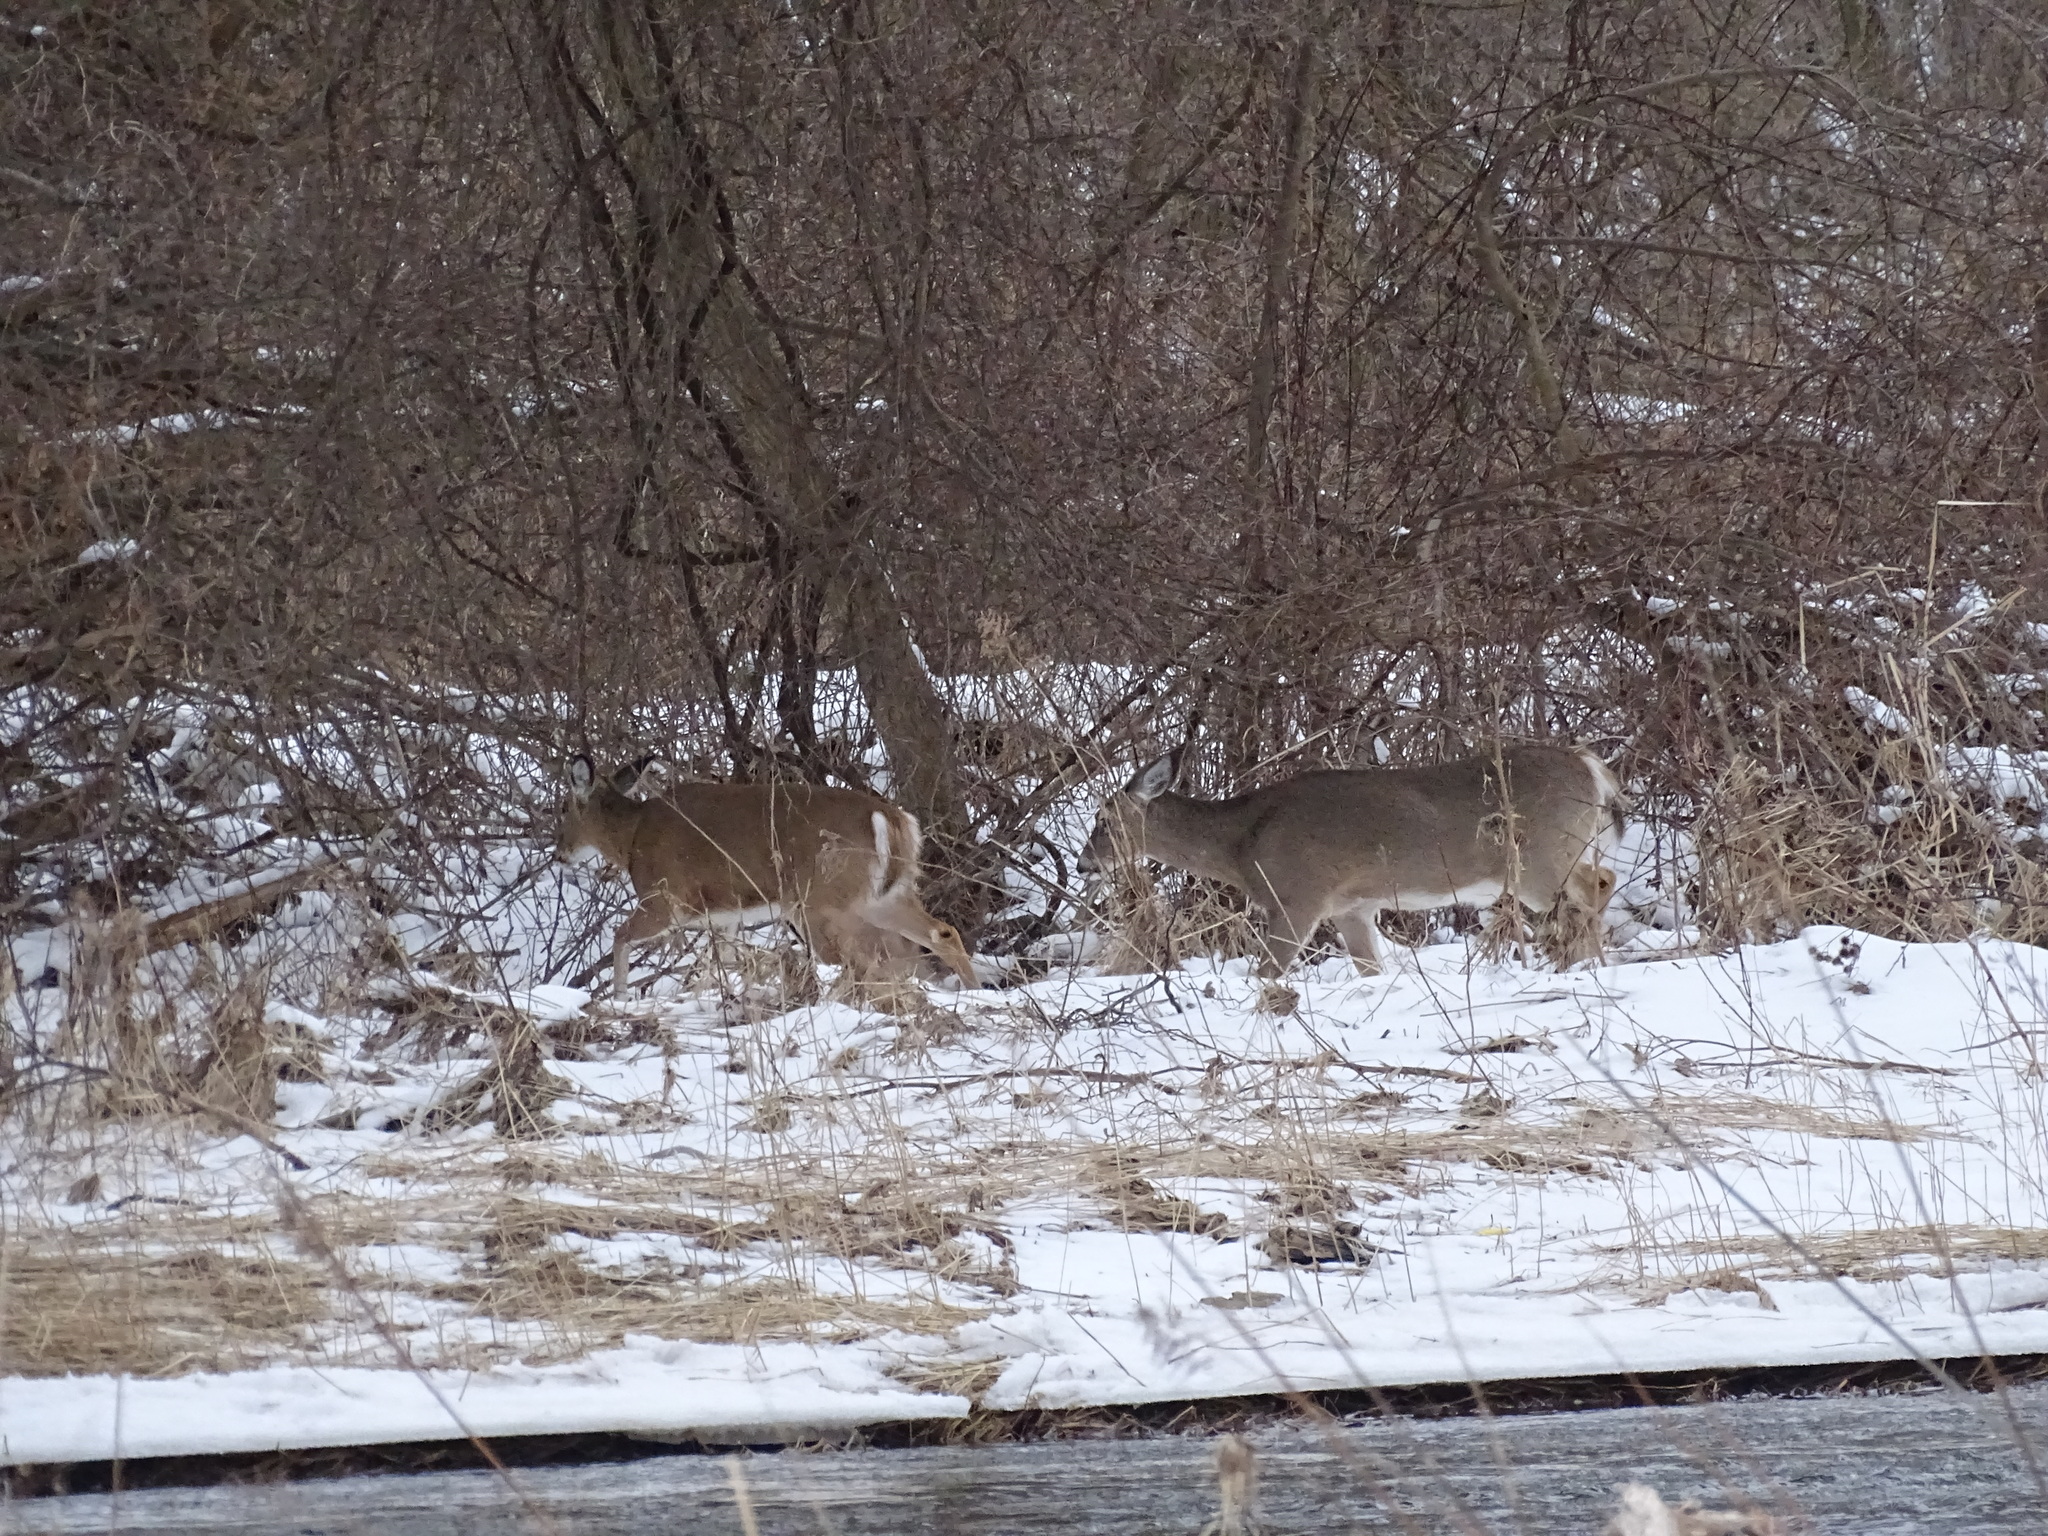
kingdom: Animalia
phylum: Chordata
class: Mammalia
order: Artiodactyla
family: Cervidae
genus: Odocoileus
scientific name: Odocoileus virginianus
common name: White-tailed deer
